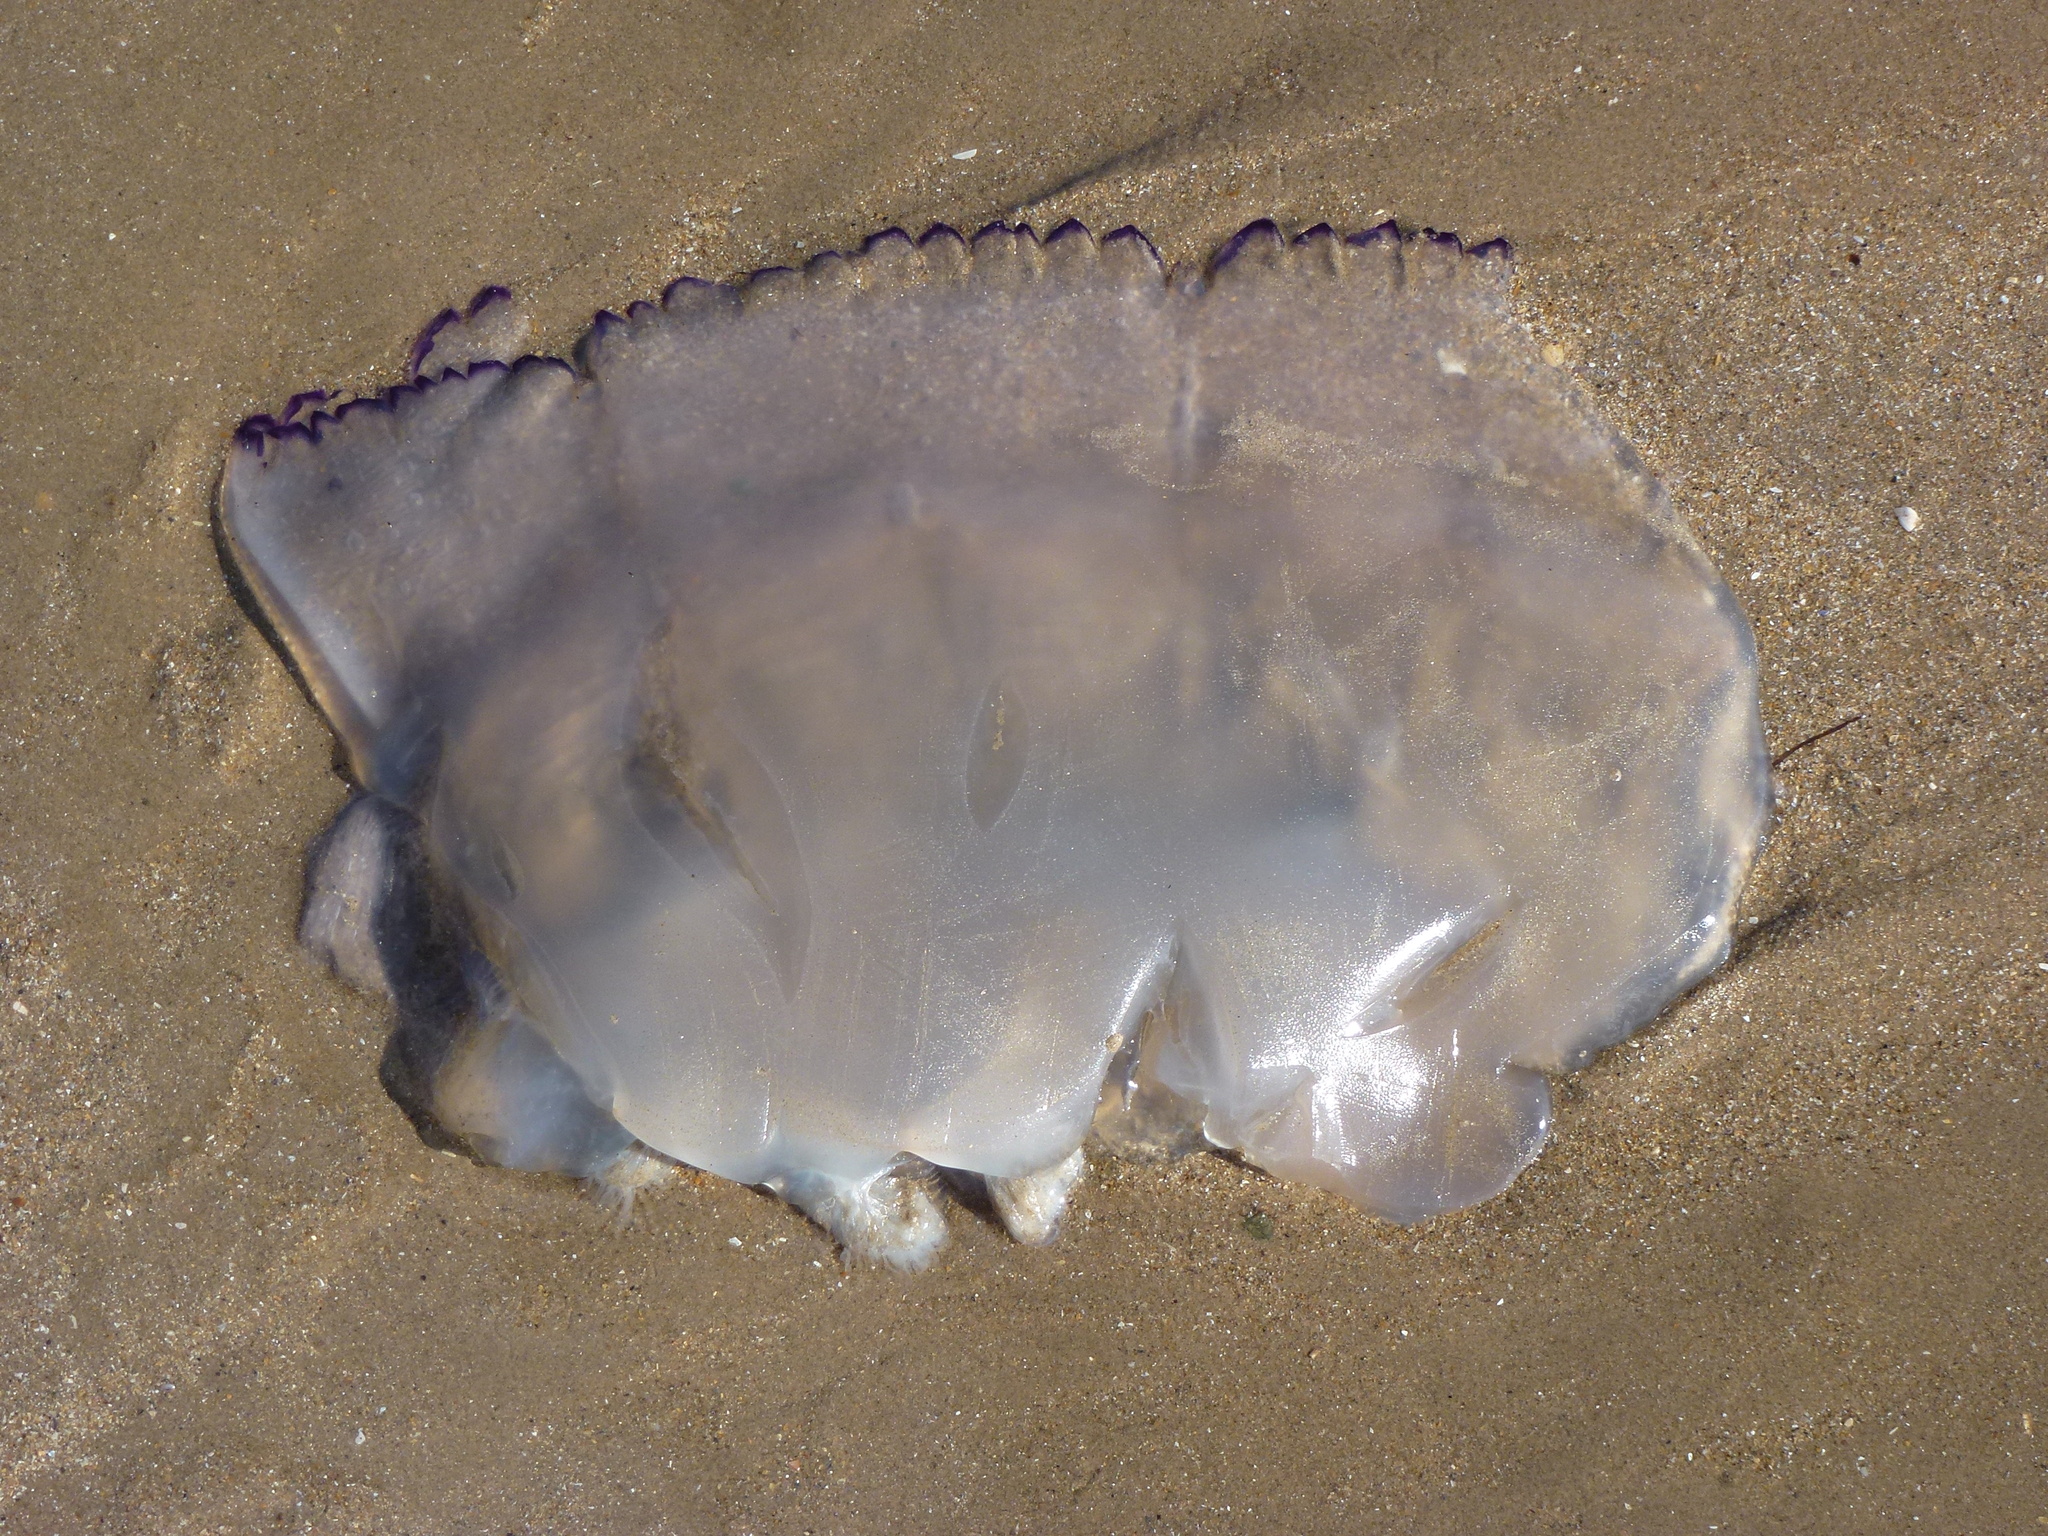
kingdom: Animalia
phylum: Cnidaria
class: Scyphozoa
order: Rhizostomeae
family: Rhizostomatidae
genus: Rhizostoma
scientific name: Rhizostoma octopus
